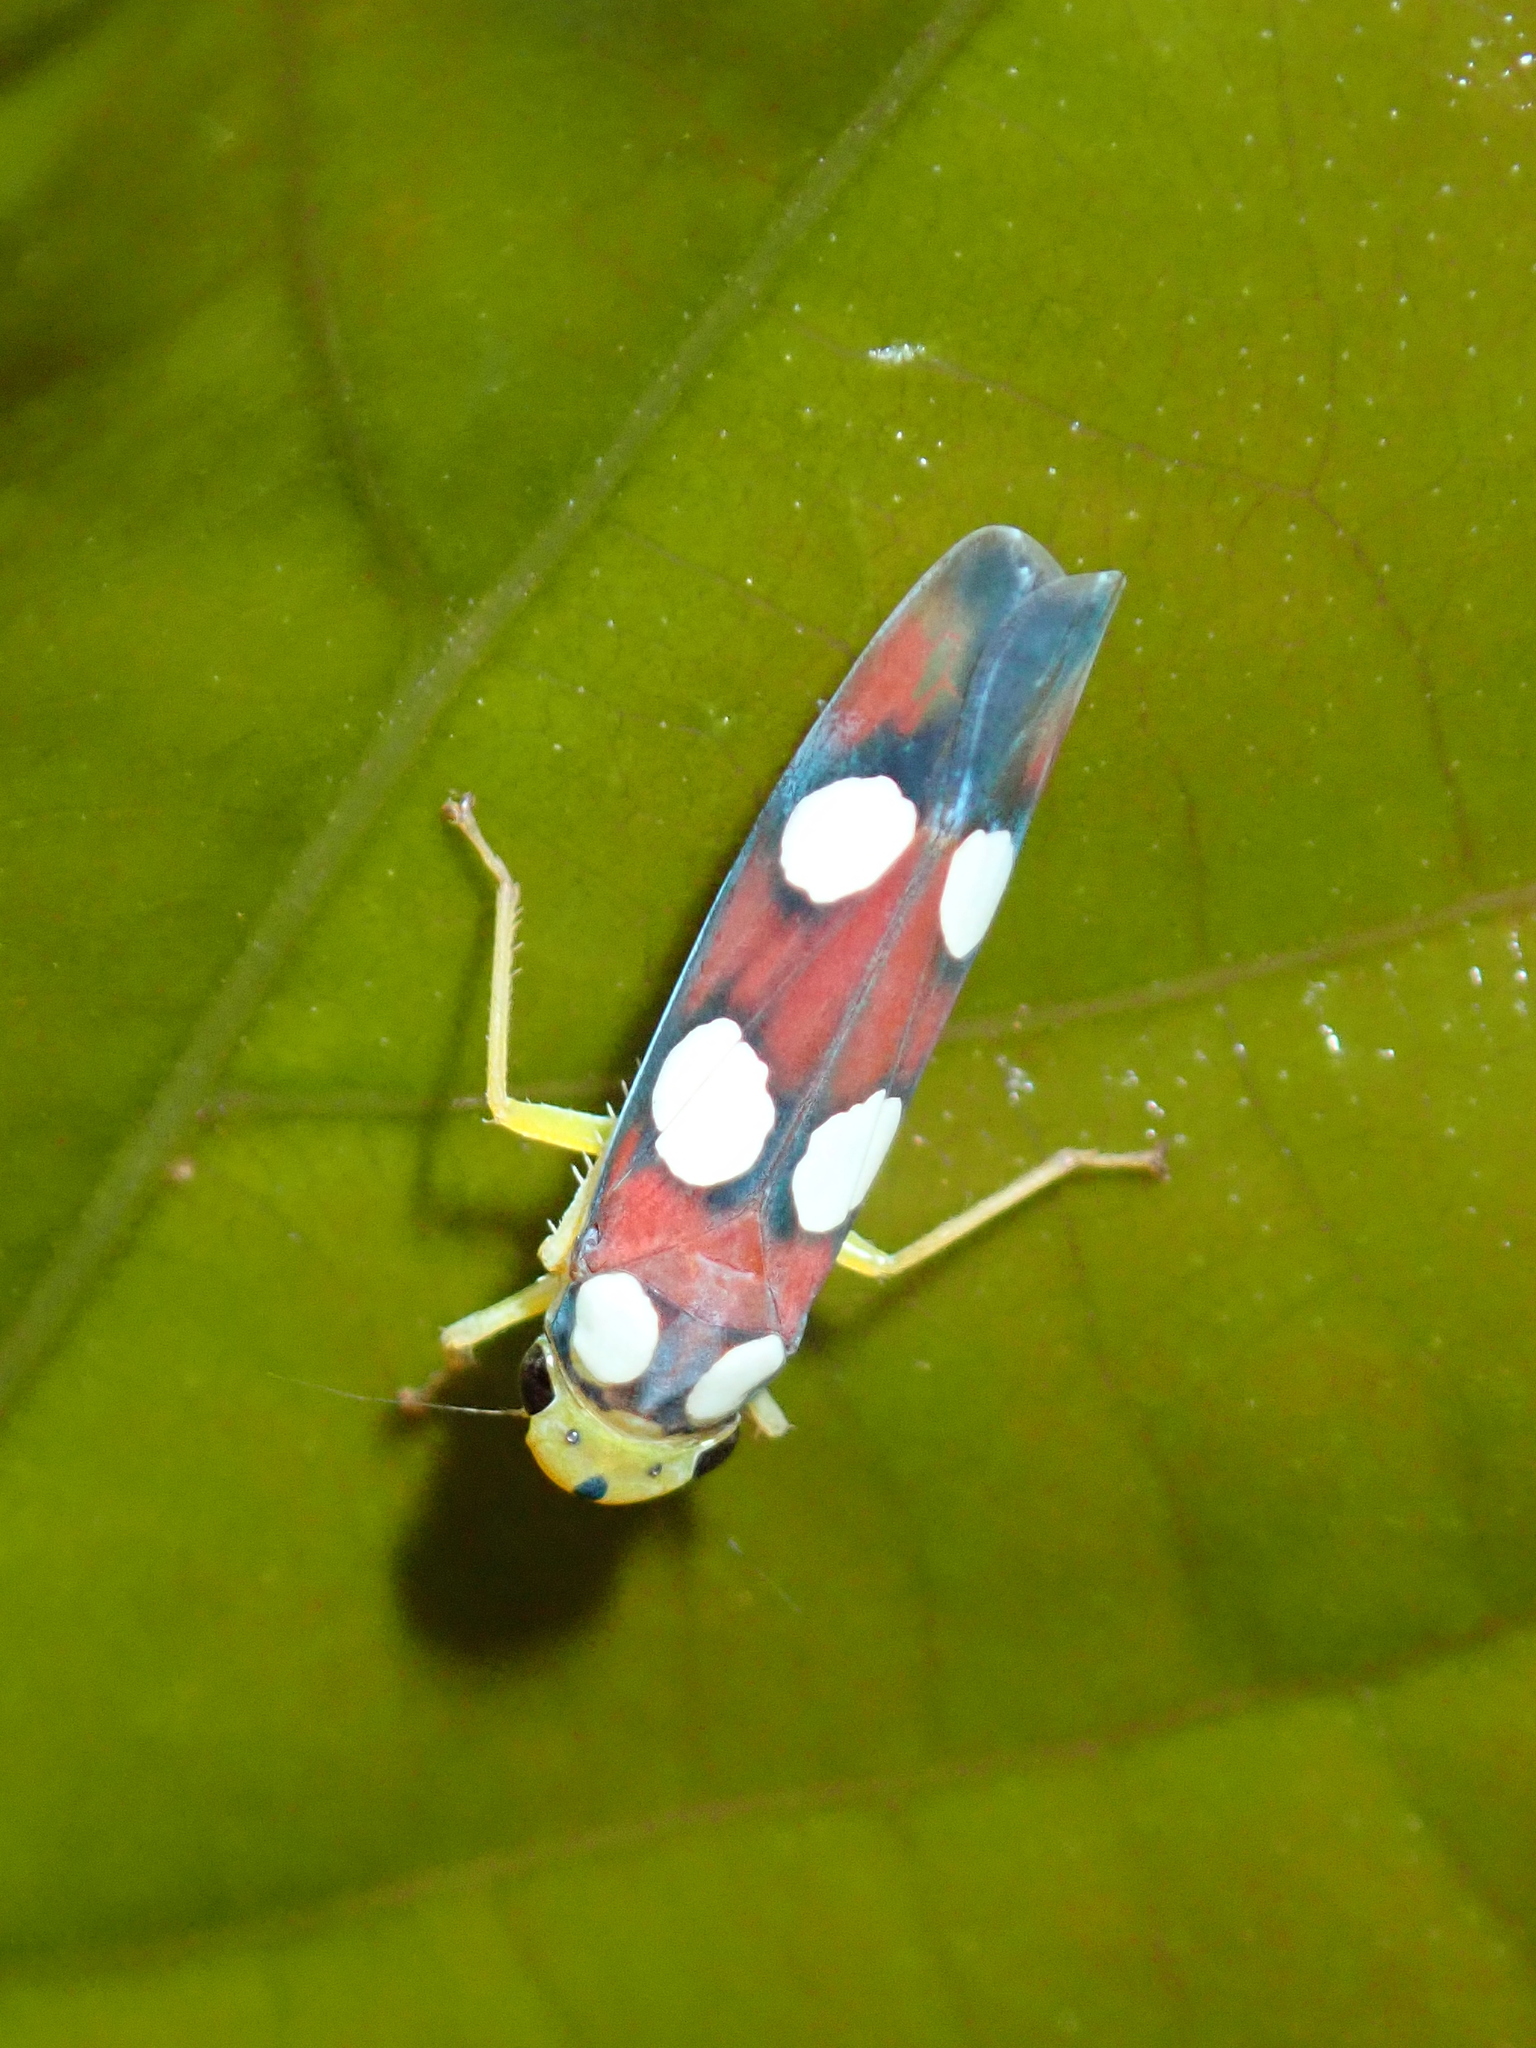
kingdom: Animalia
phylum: Arthropoda
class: Insecta
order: Hemiptera
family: Cicadellidae
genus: Tettisama
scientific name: Tettisama quinquemaculata
